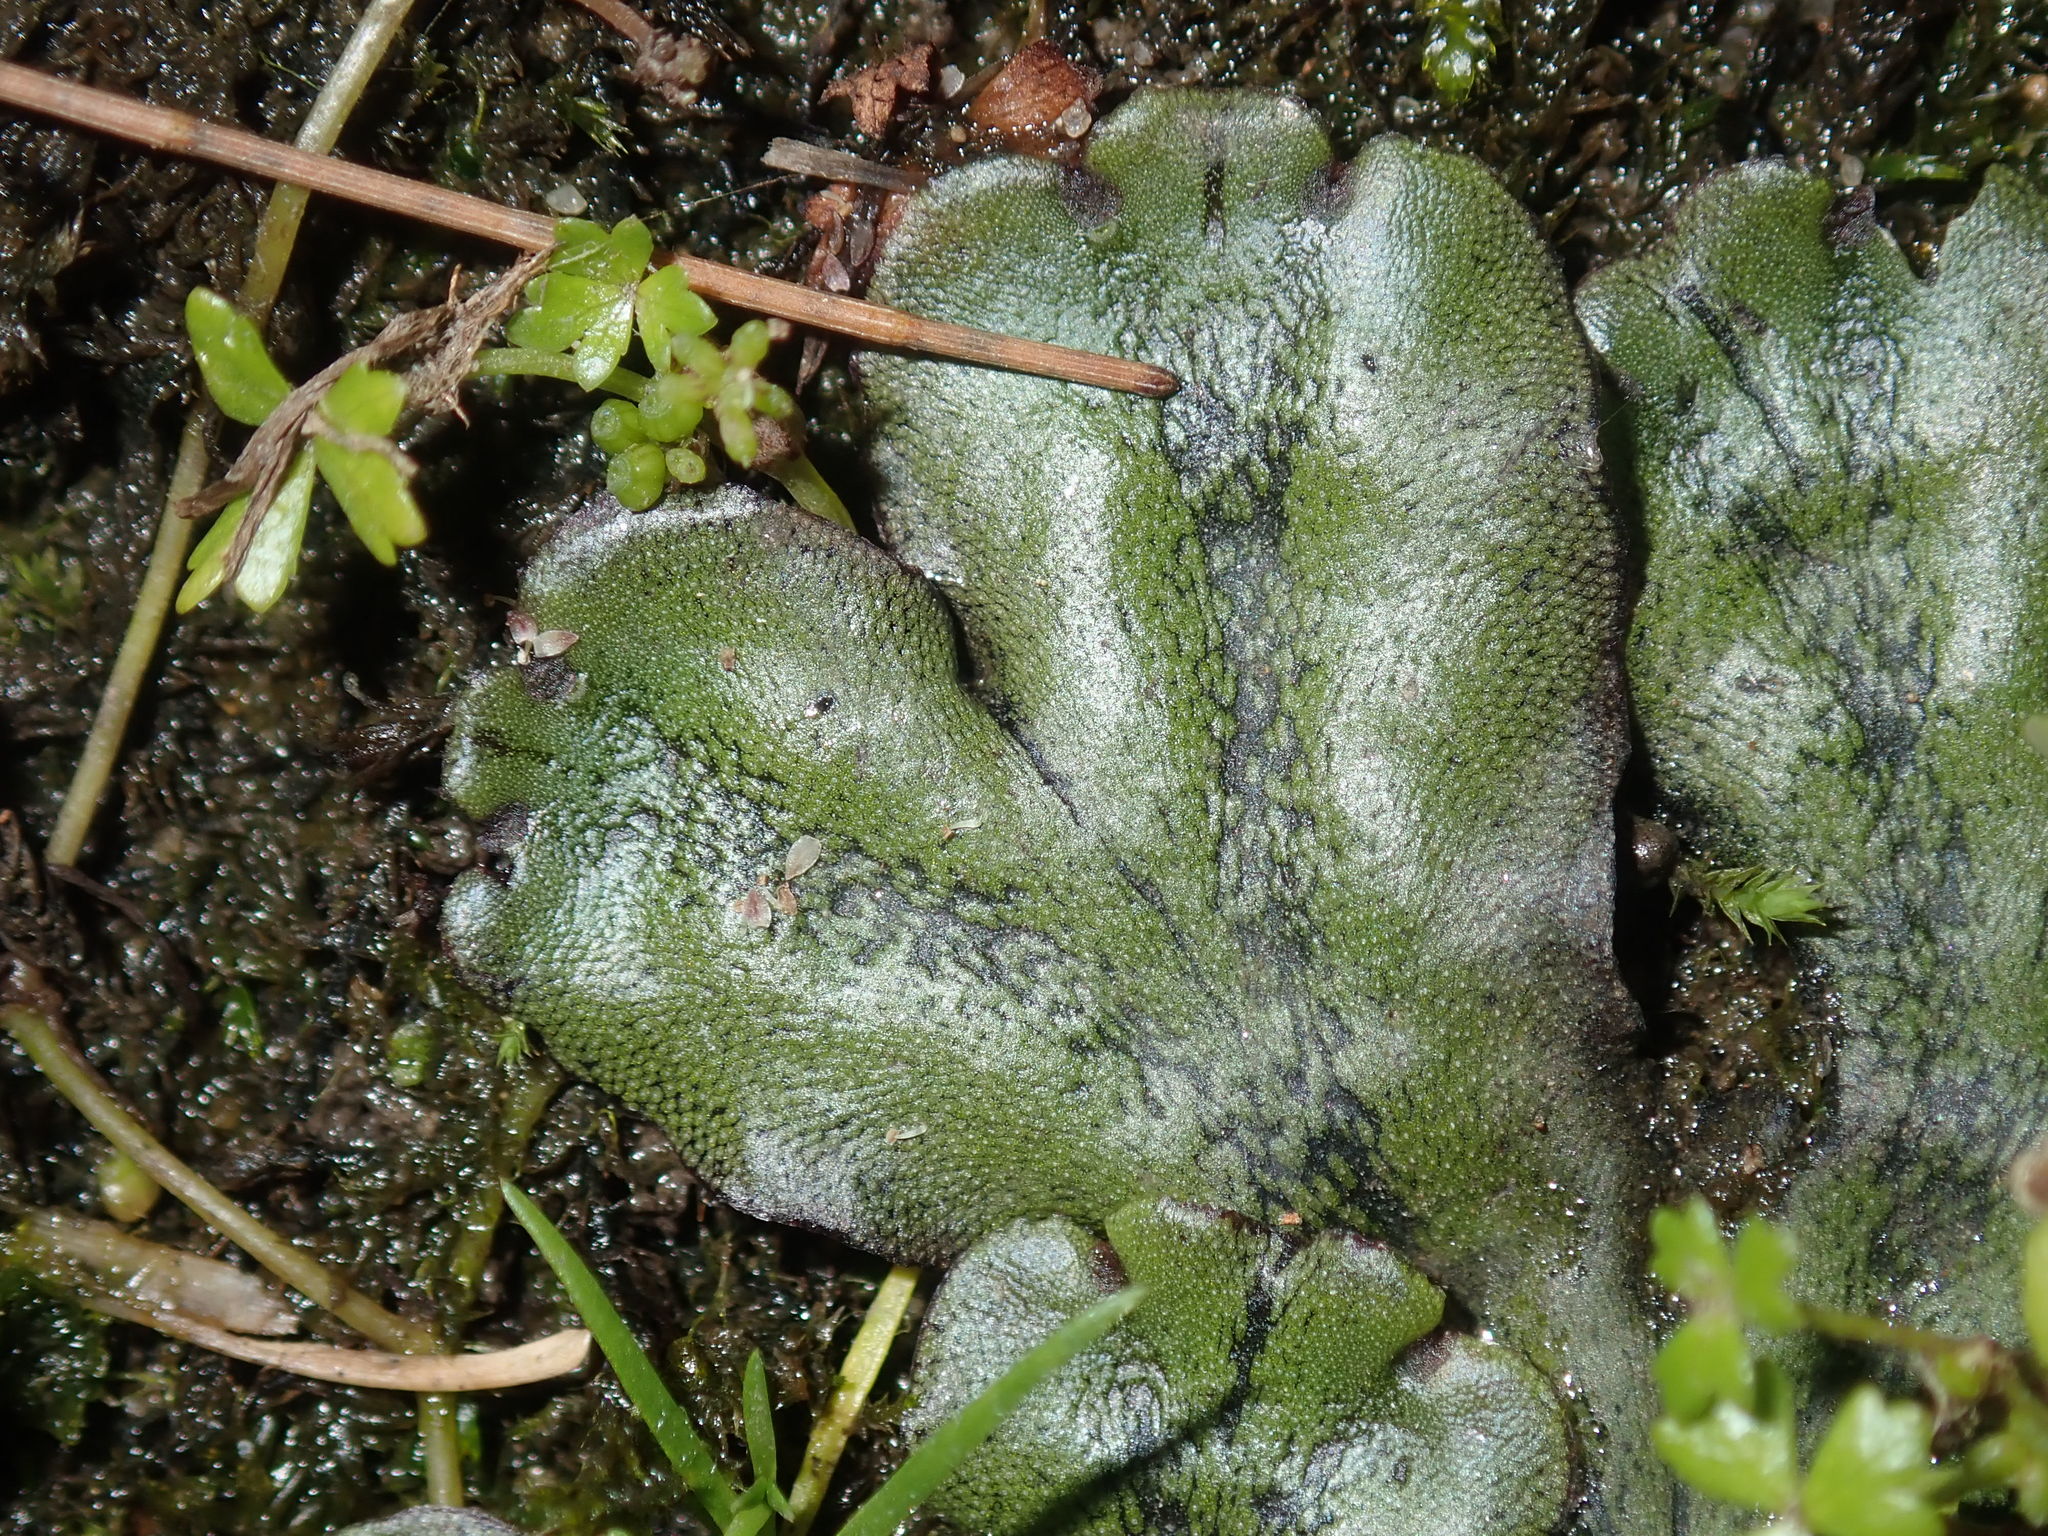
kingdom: Plantae
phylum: Marchantiophyta
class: Marchantiopsida
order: Marchantiales
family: Marchantiaceae
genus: Marchantia
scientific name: Marchantia polymorpha
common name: Common liverwort
